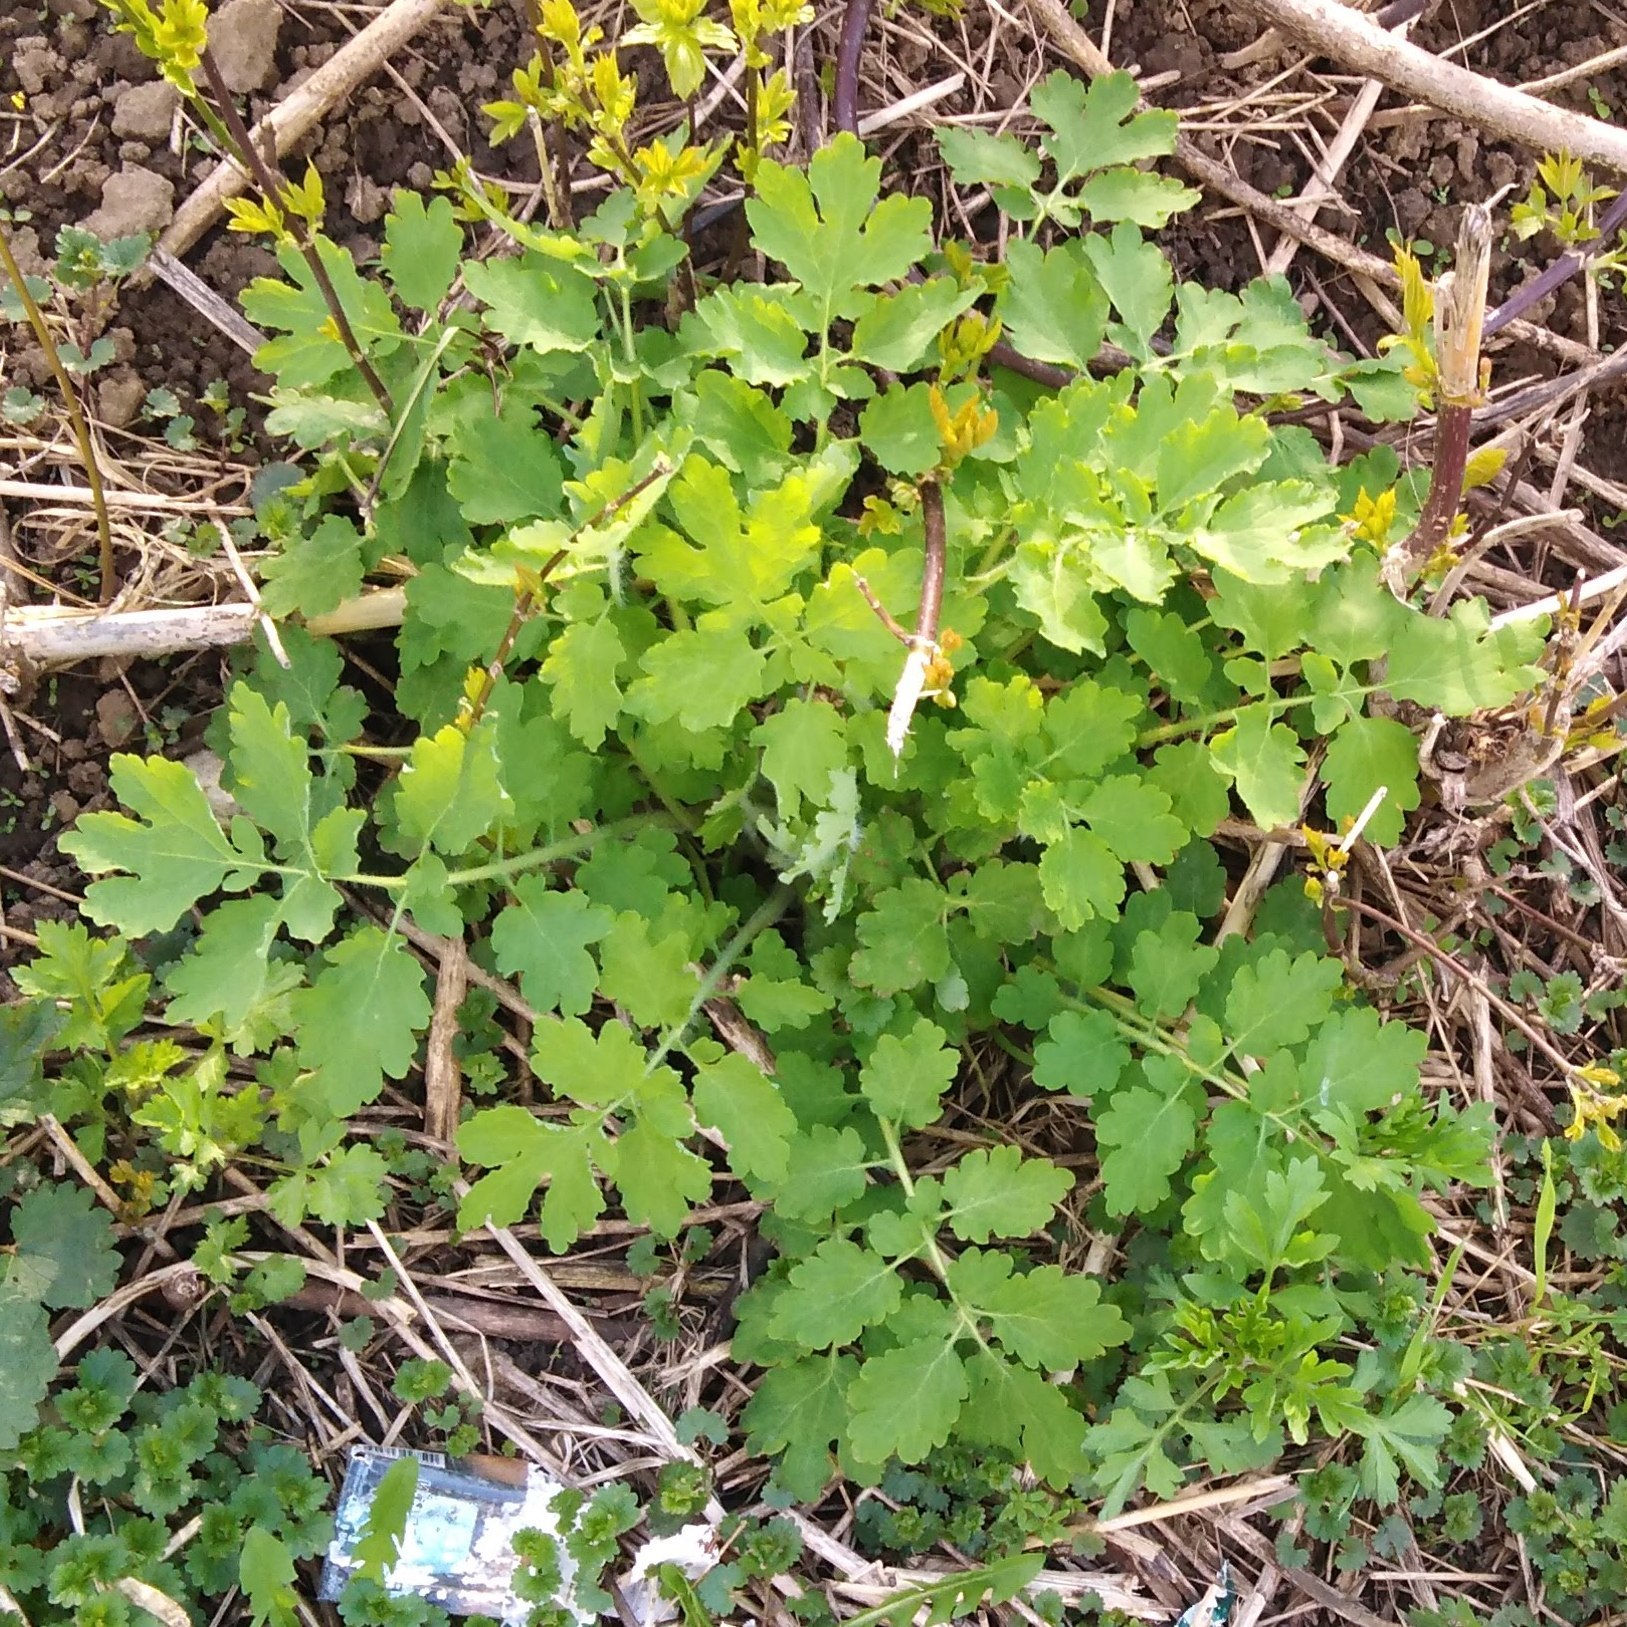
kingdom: Plantae
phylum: Tracheophyta
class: Magnoliopsida
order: Ranunculales
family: Papaveraceae
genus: Chelidonium
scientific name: Chelidonium majus
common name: Greater celandine
